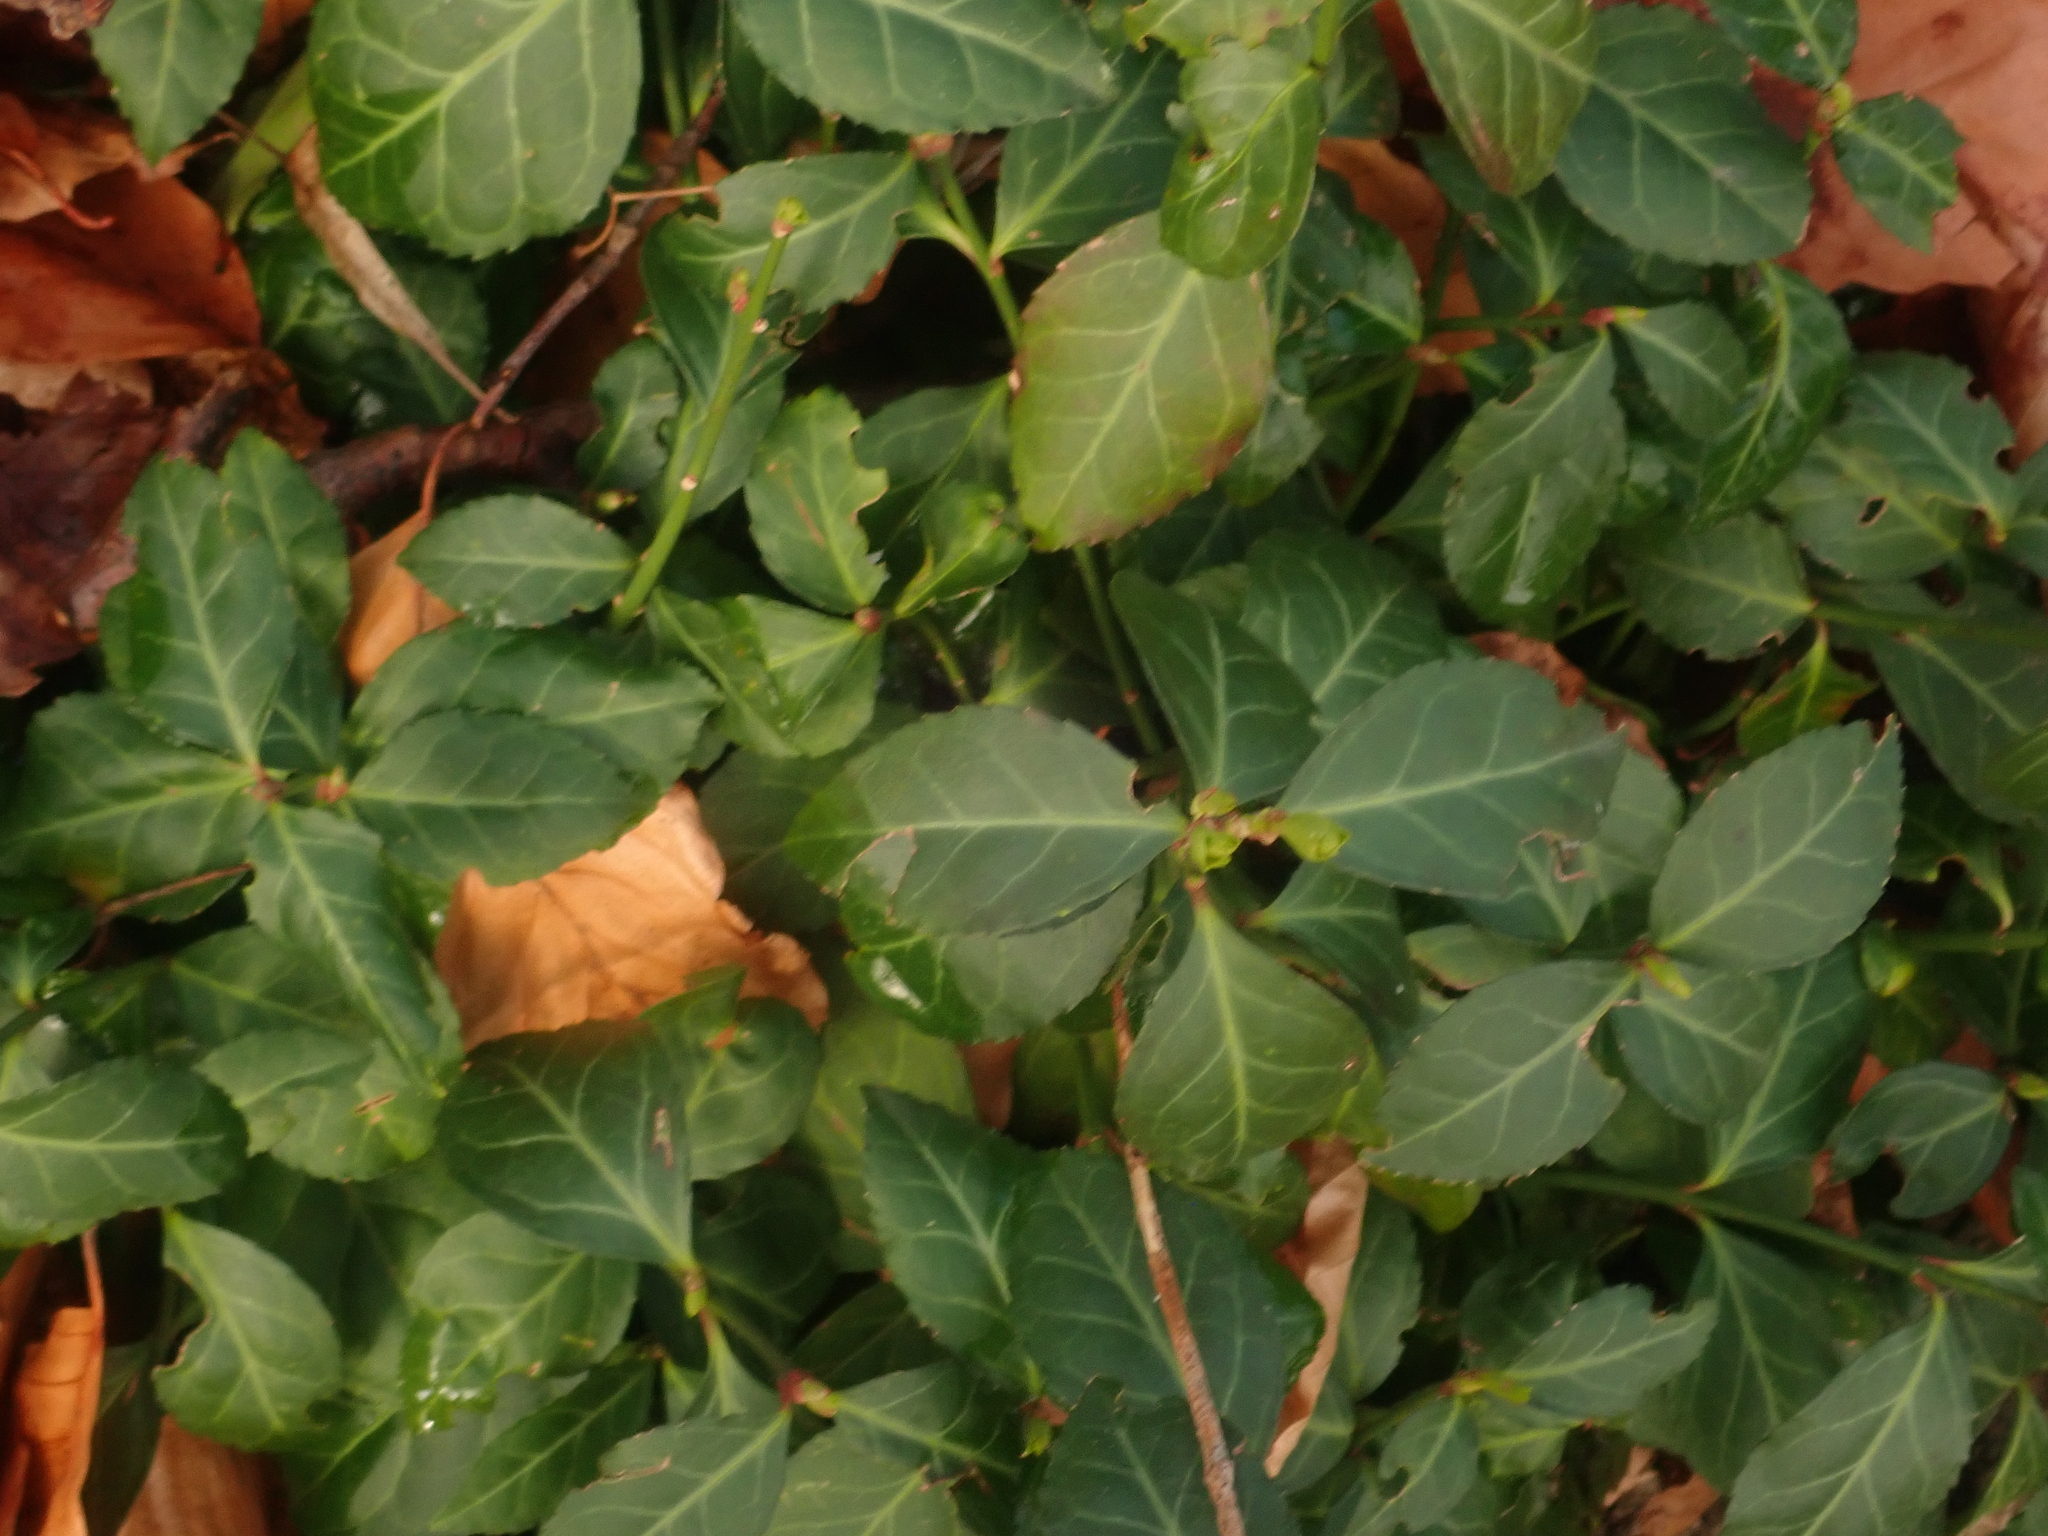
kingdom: Plantae
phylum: Tracheophyta
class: Magnoliopsida
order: Celastrales
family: Celastraceae
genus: Euonymus
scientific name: Euonymus fortunei
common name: Climbing euonymus
